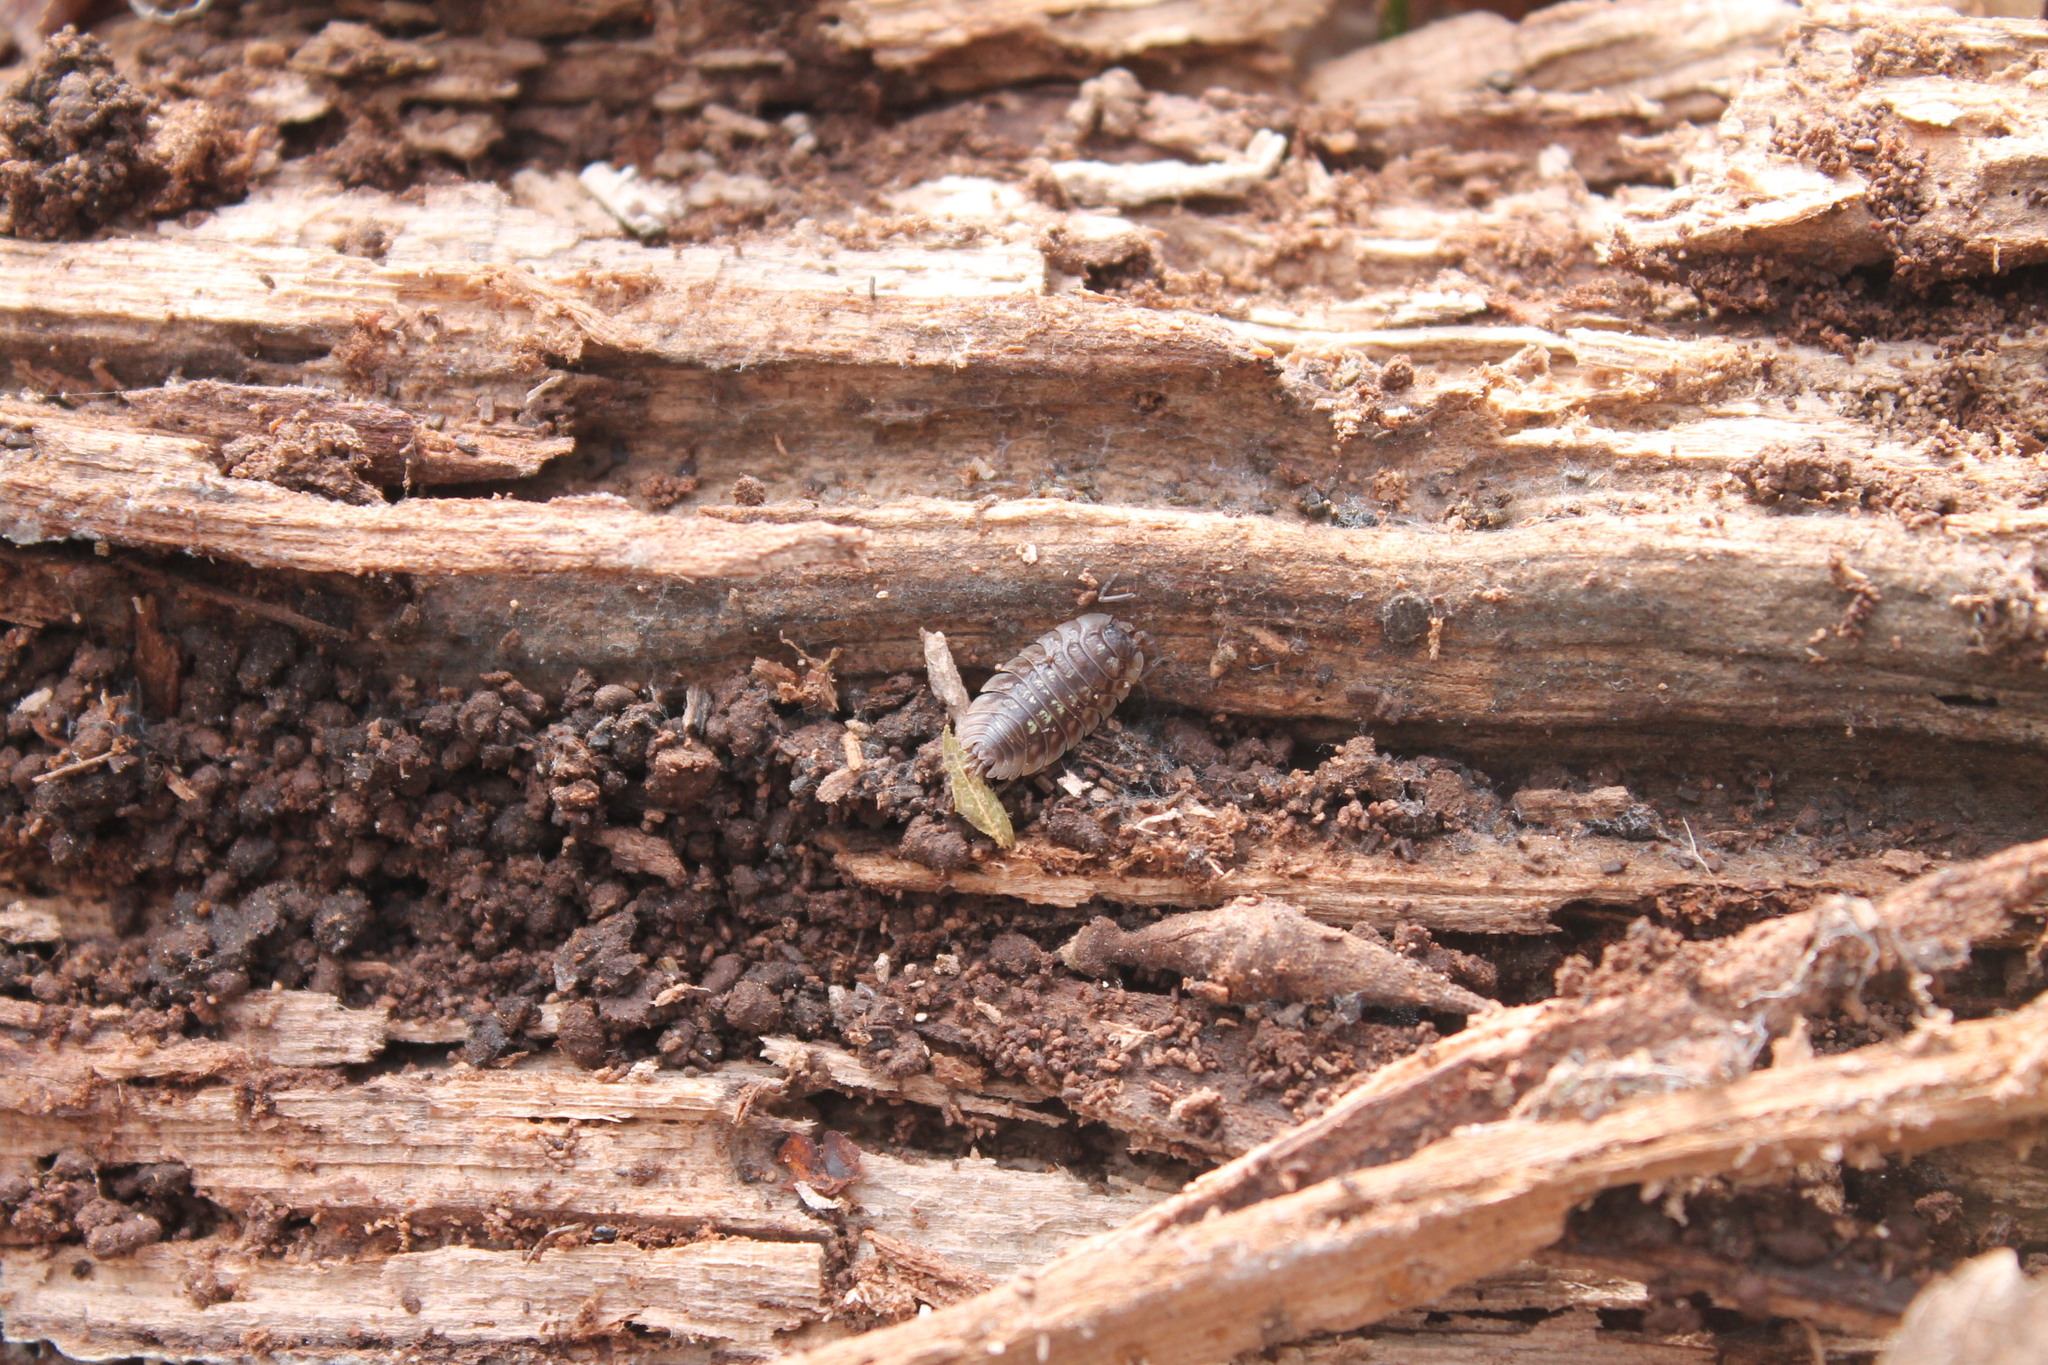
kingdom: Animalia
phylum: Arthropoda
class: Malacostraca
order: Isopoda
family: Oniscidae
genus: Oniscus
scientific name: Oniscus asellus
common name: Common shiny woodlouse
